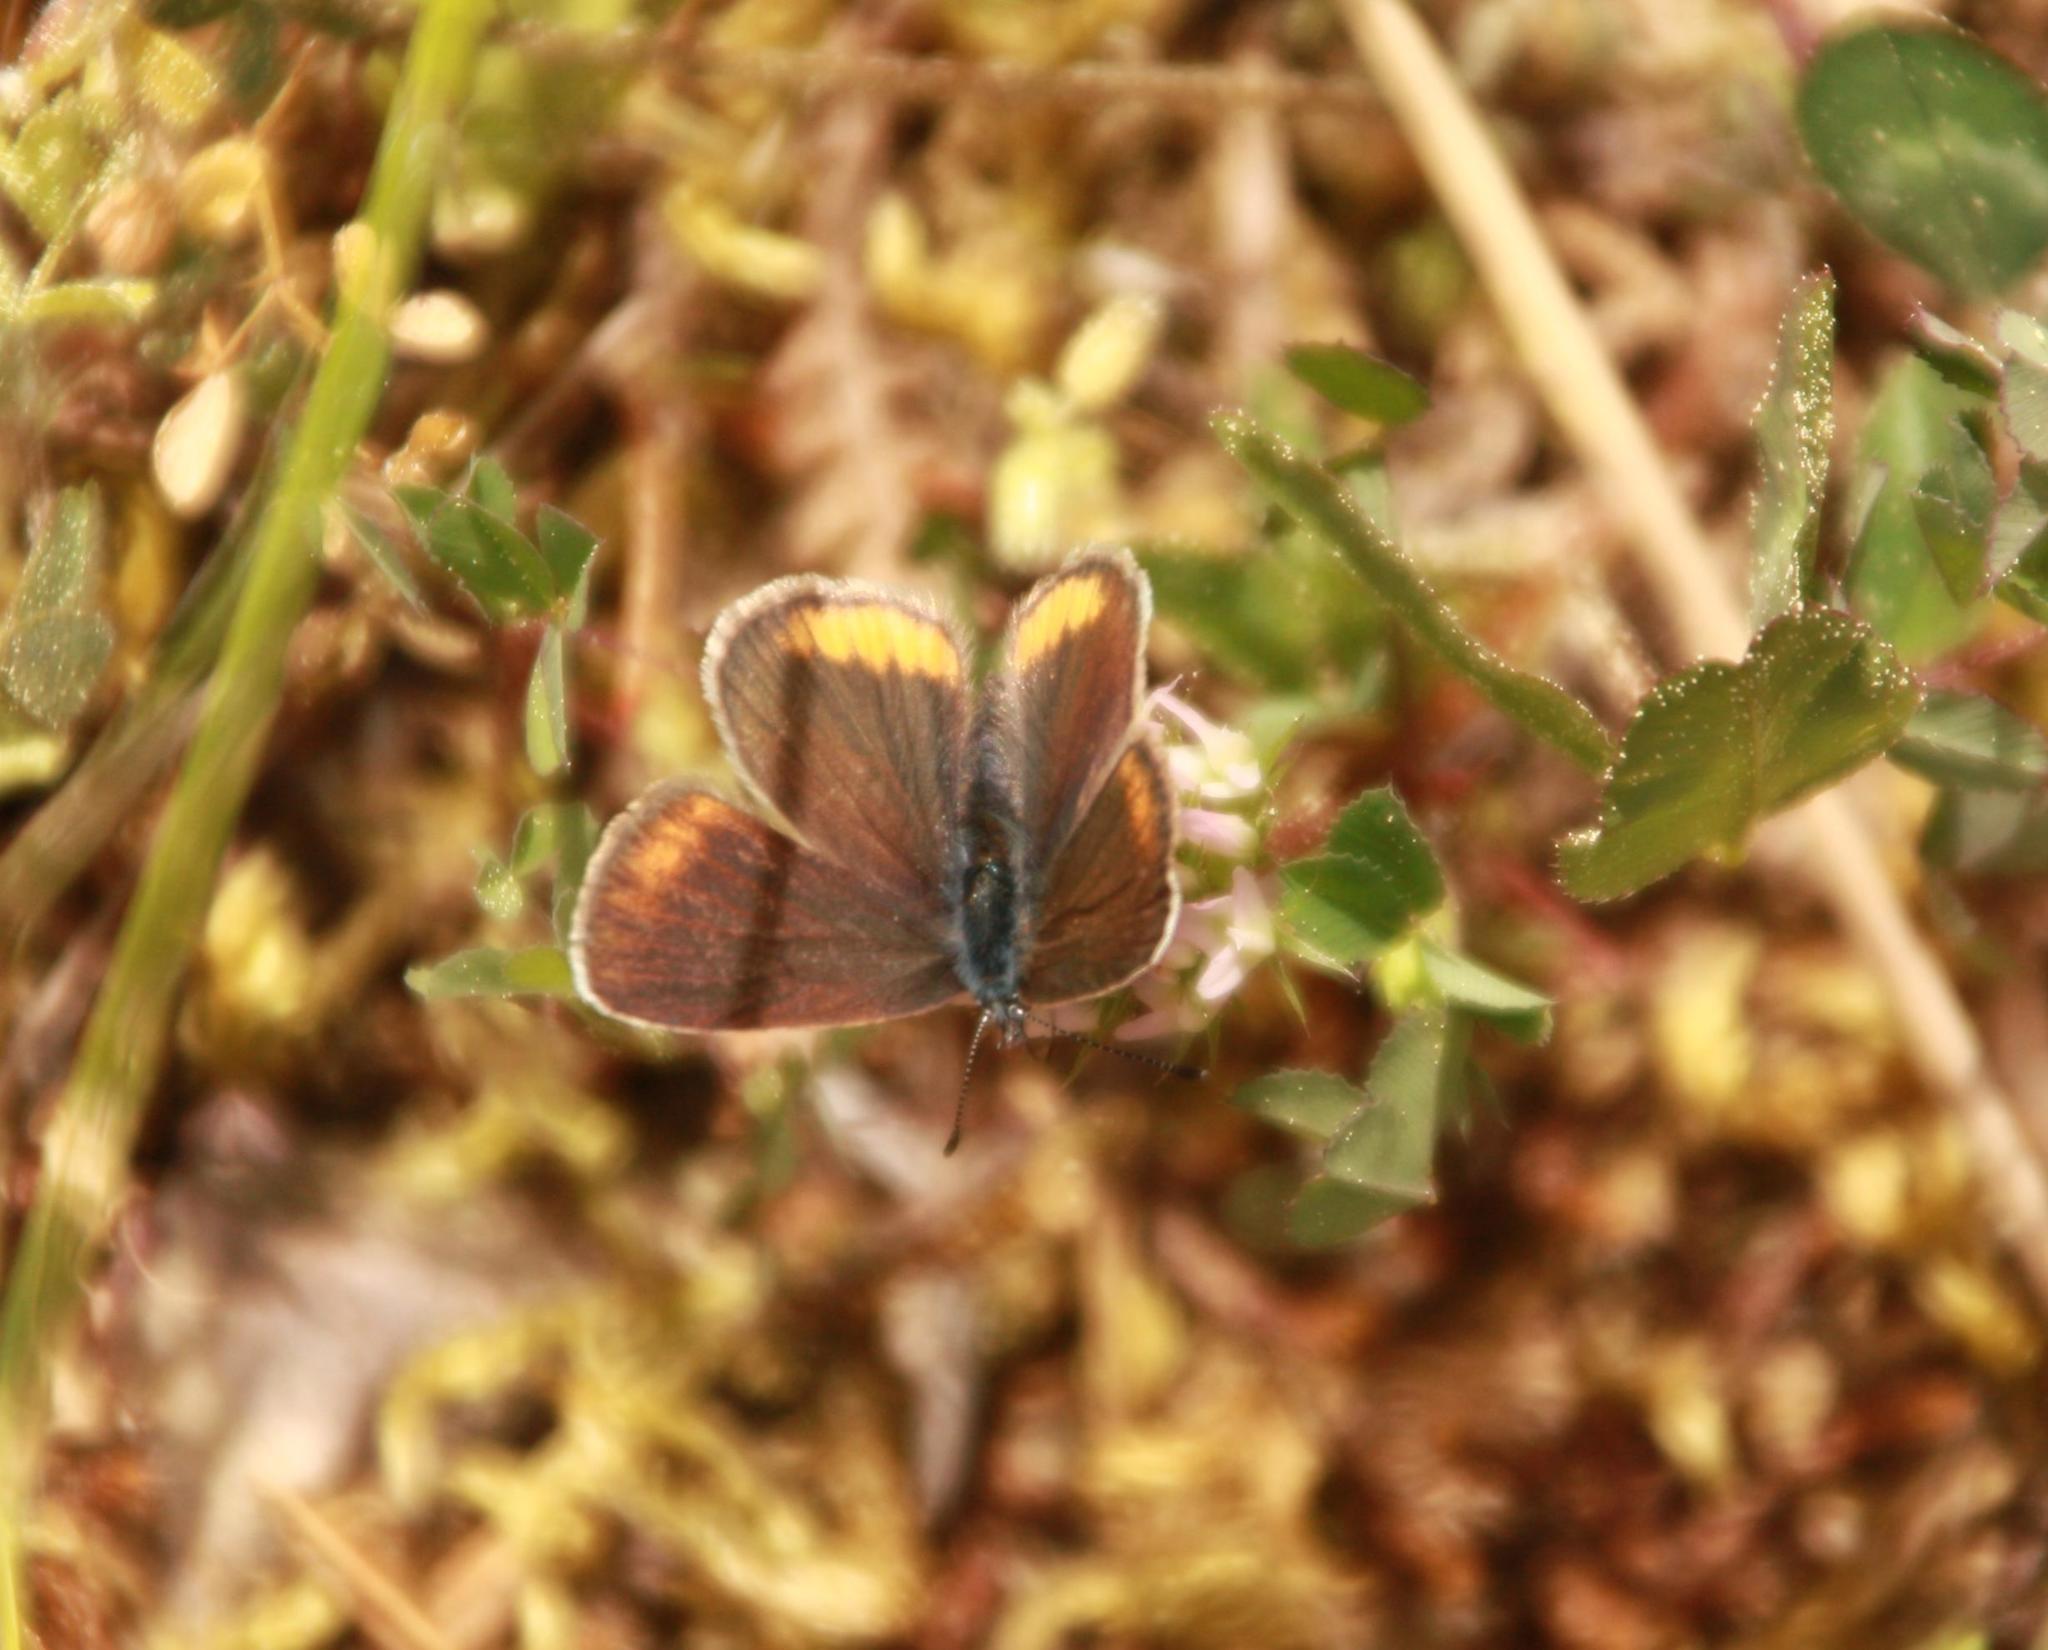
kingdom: Animalia
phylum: Arthropoda
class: Insecta
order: Lepidoptera
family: Lycaenidae
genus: Cyaniris
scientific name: Cyaniris semiargus
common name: Mazarine blue
